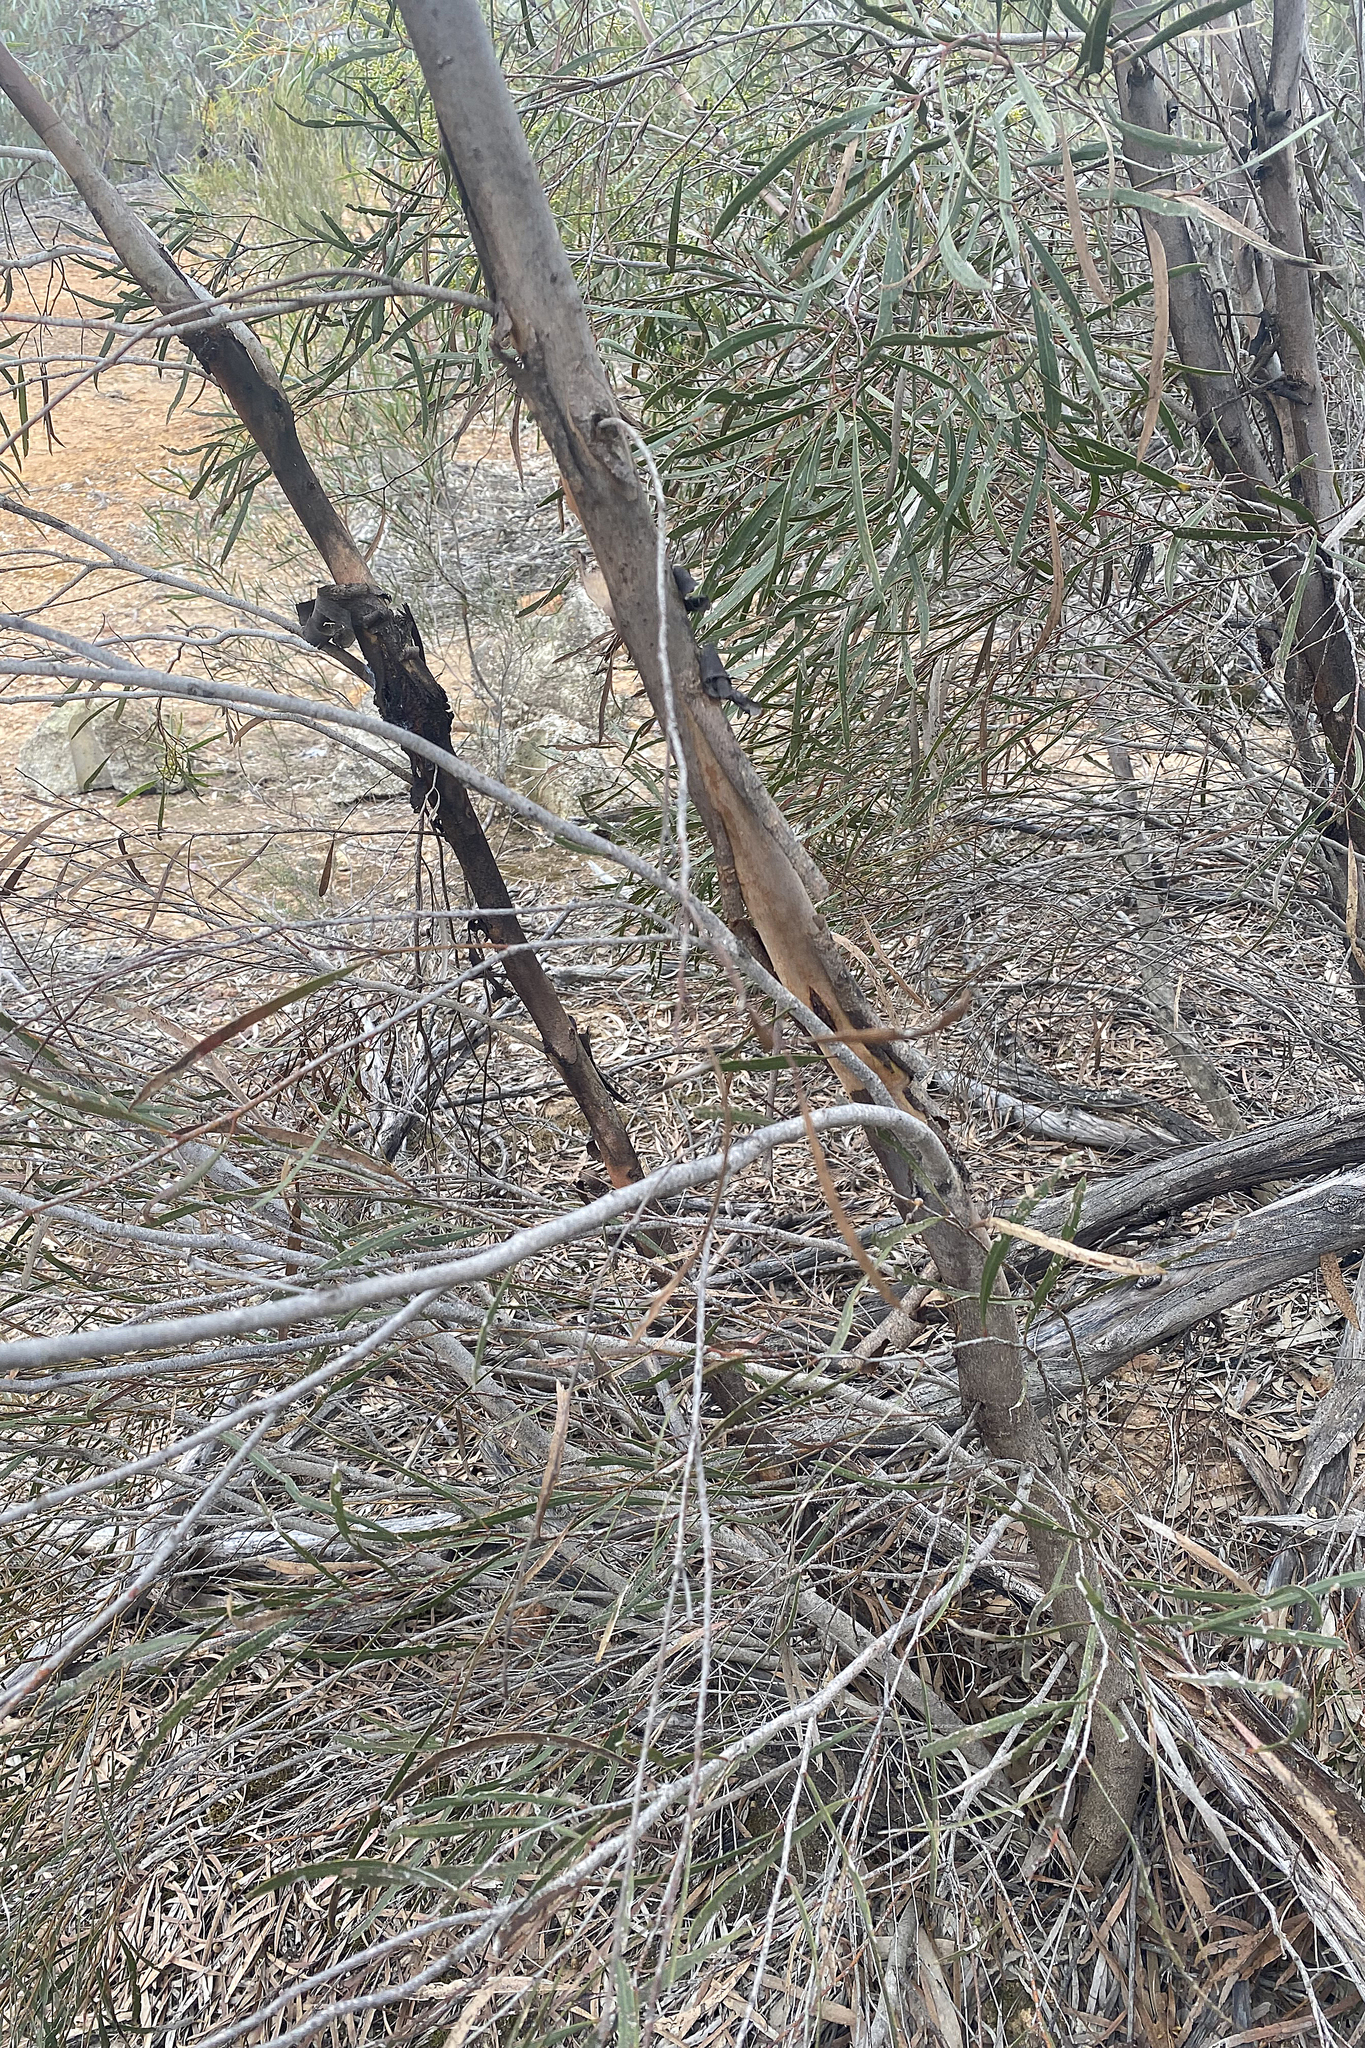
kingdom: Plantae
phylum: Tracheophyta
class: Magnoliopsida
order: Myrtales
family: Myrtaceae
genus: Eucalyptus
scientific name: Eucalyptus viridis
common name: Green mallee
